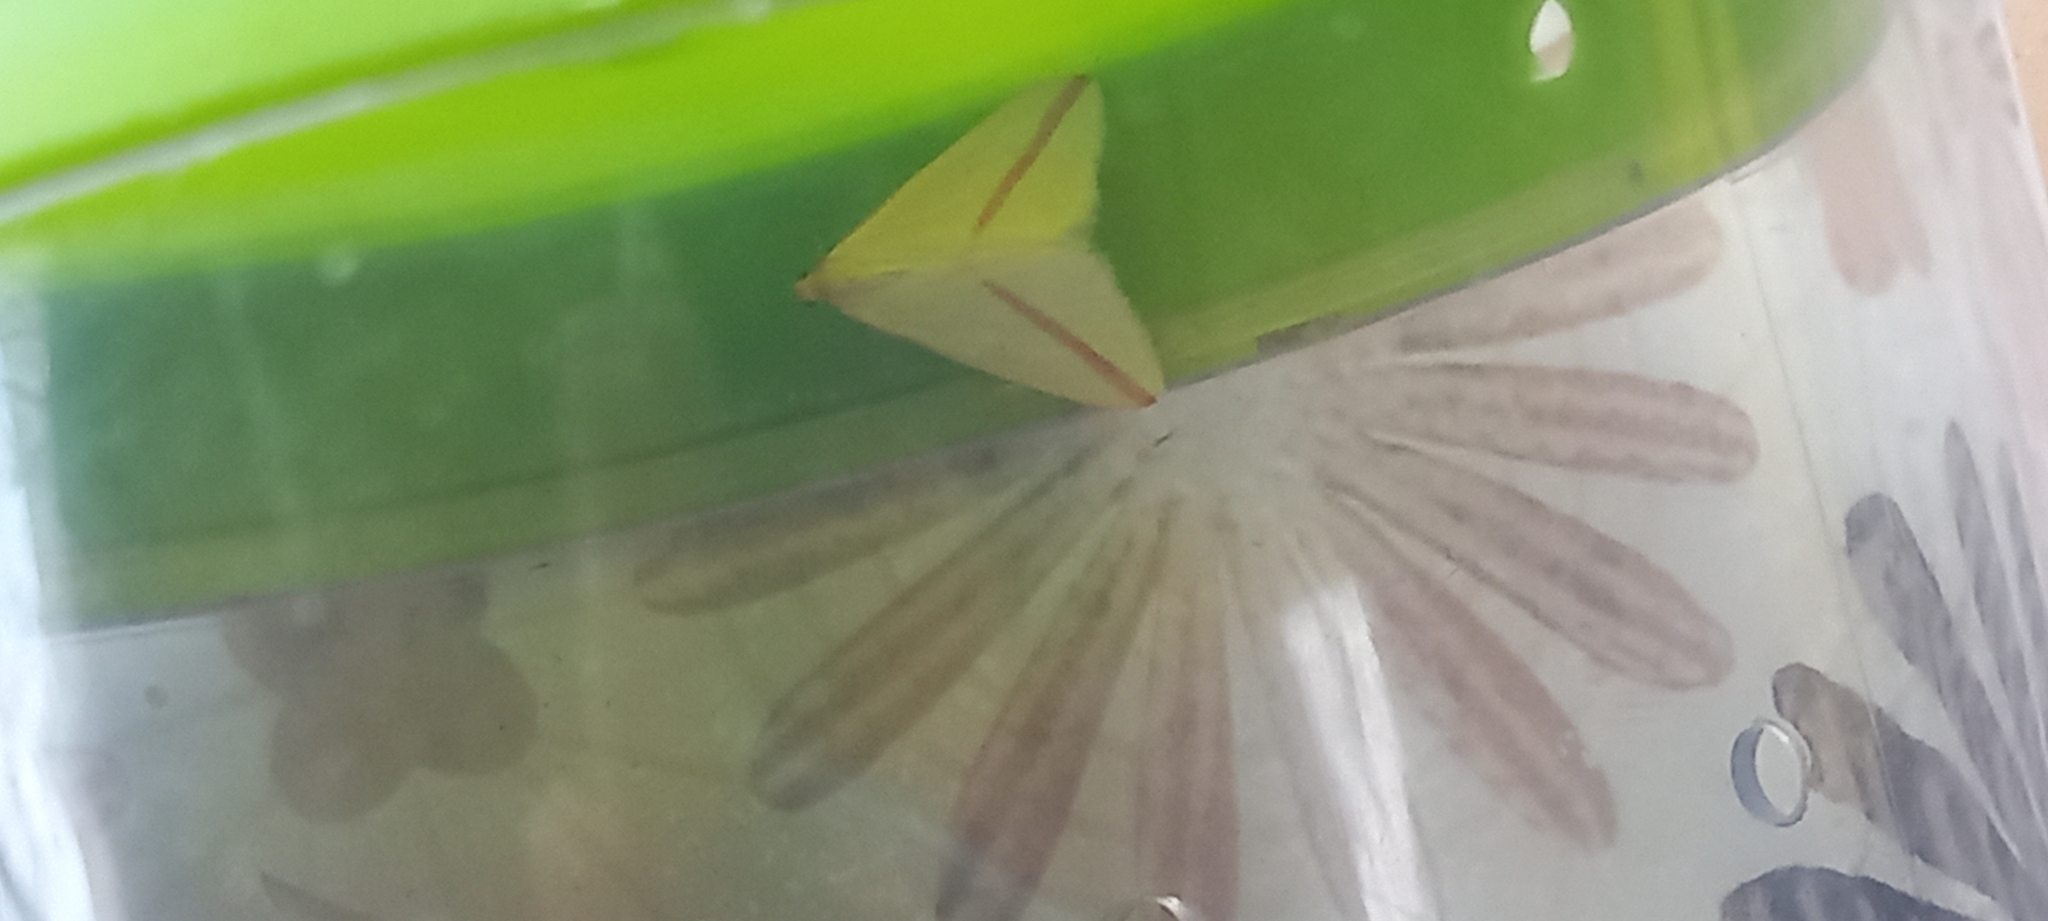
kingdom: Animalia
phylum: Arthropoda
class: Insecta
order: Lepidoptera
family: Geometridae
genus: Rhodometra
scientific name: Rhodometra sacraria
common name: Vestal
